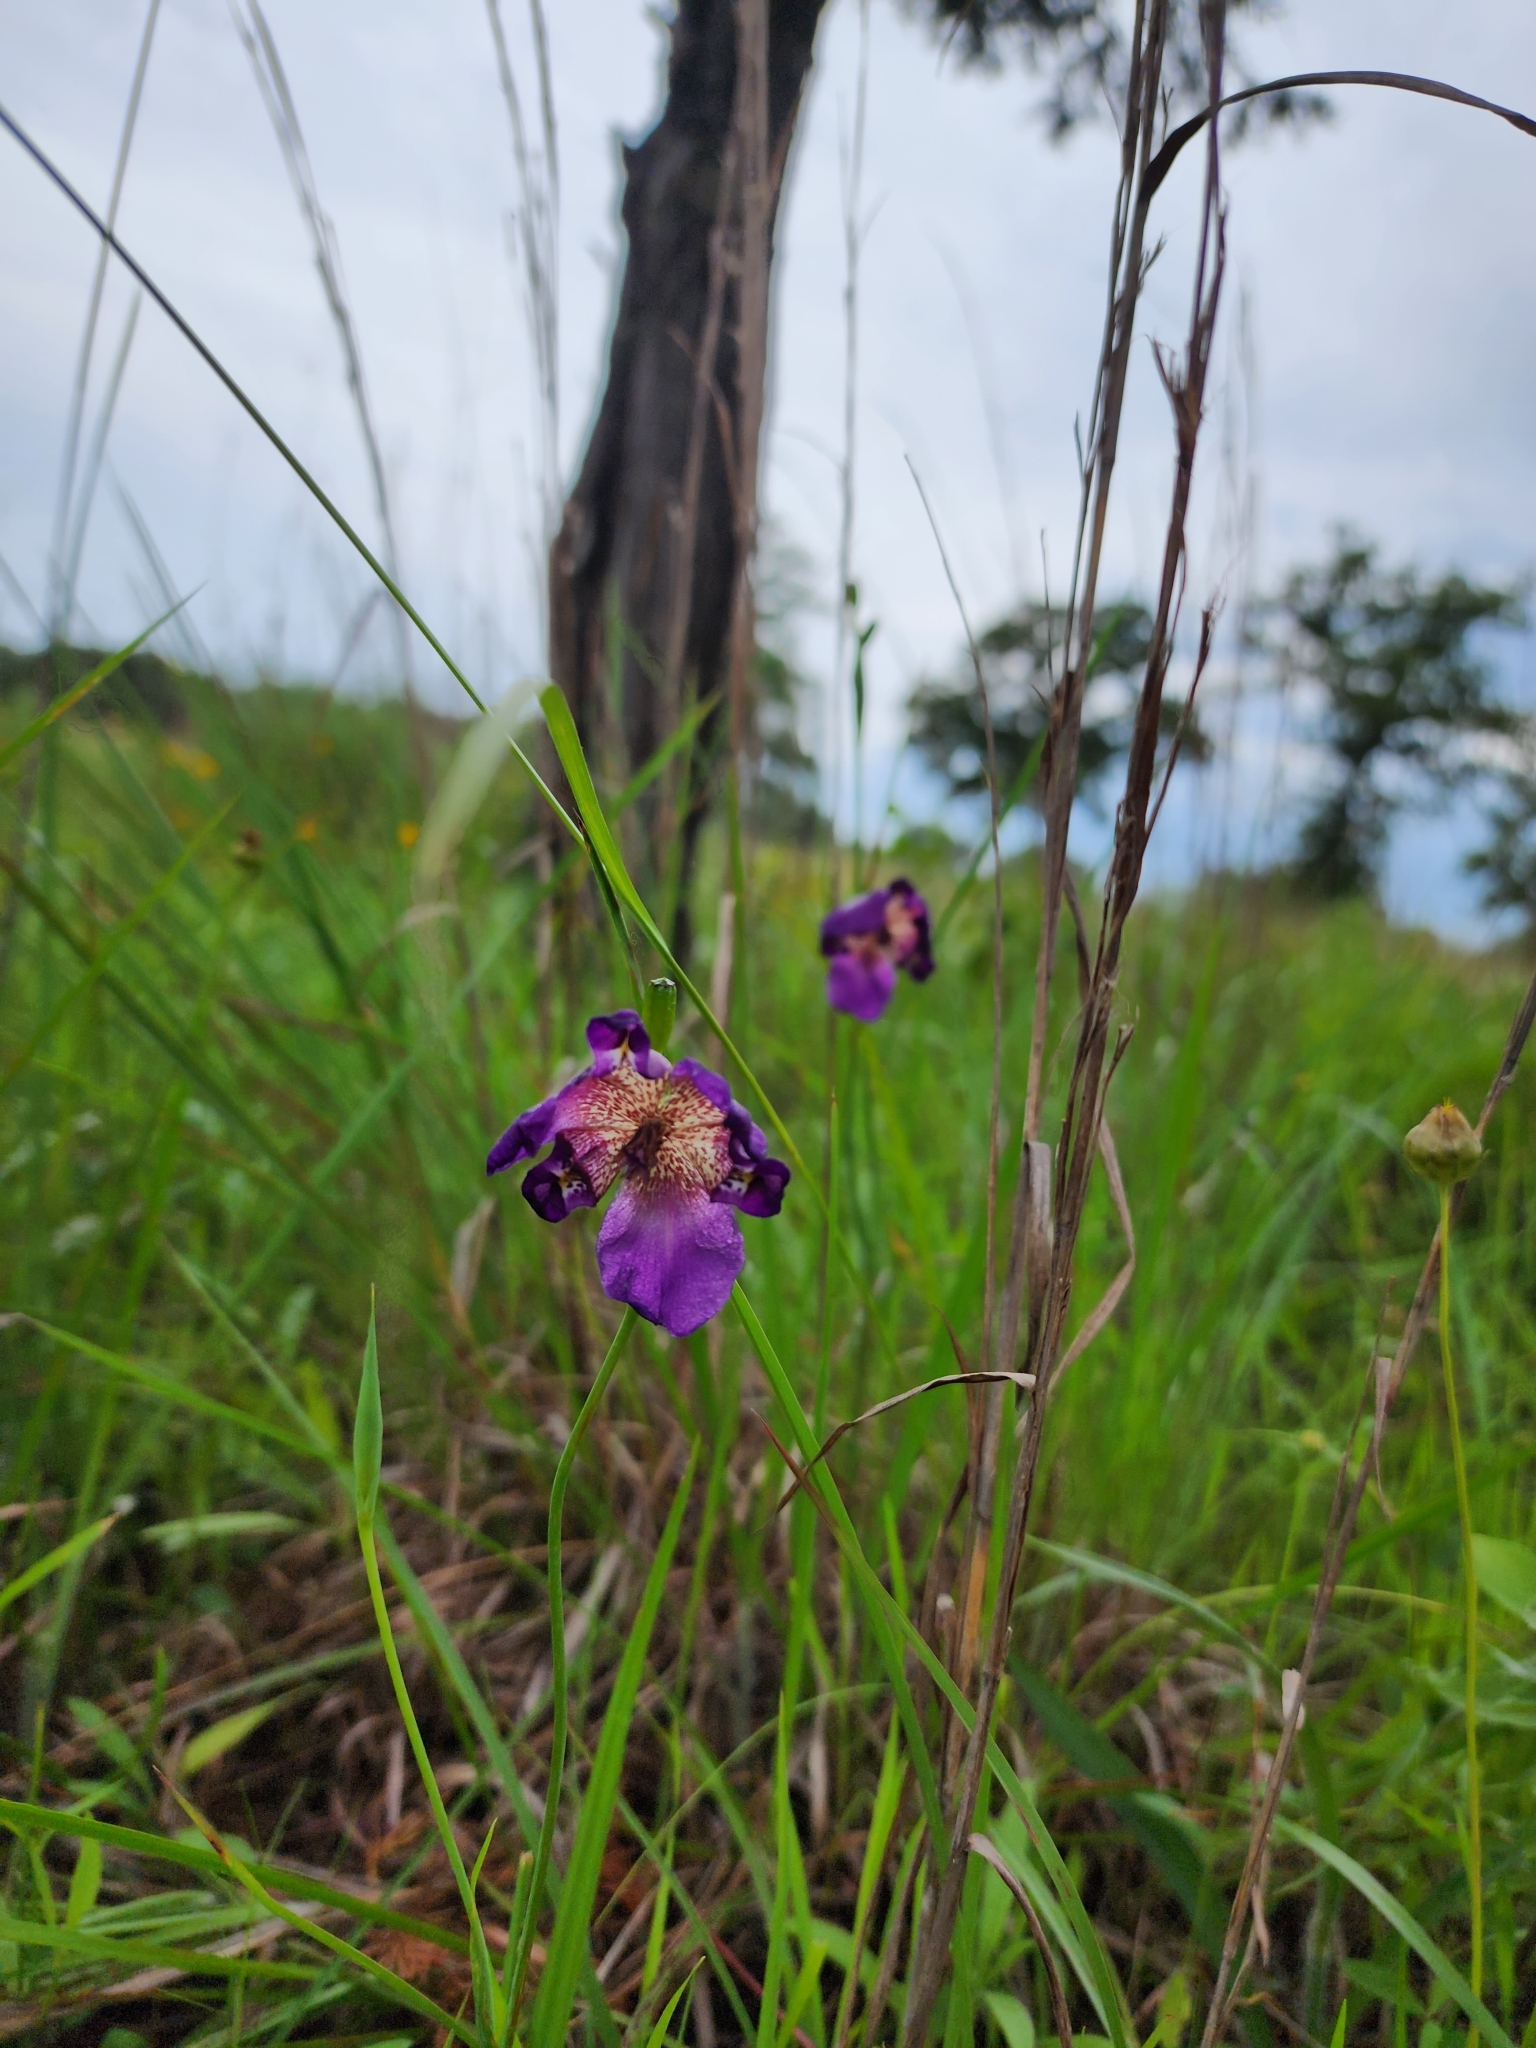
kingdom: Plantae
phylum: Tracheophyta
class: Liliopsida
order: Asparagales
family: Iridaceae
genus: Alophia
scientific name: Alophia drummondii
